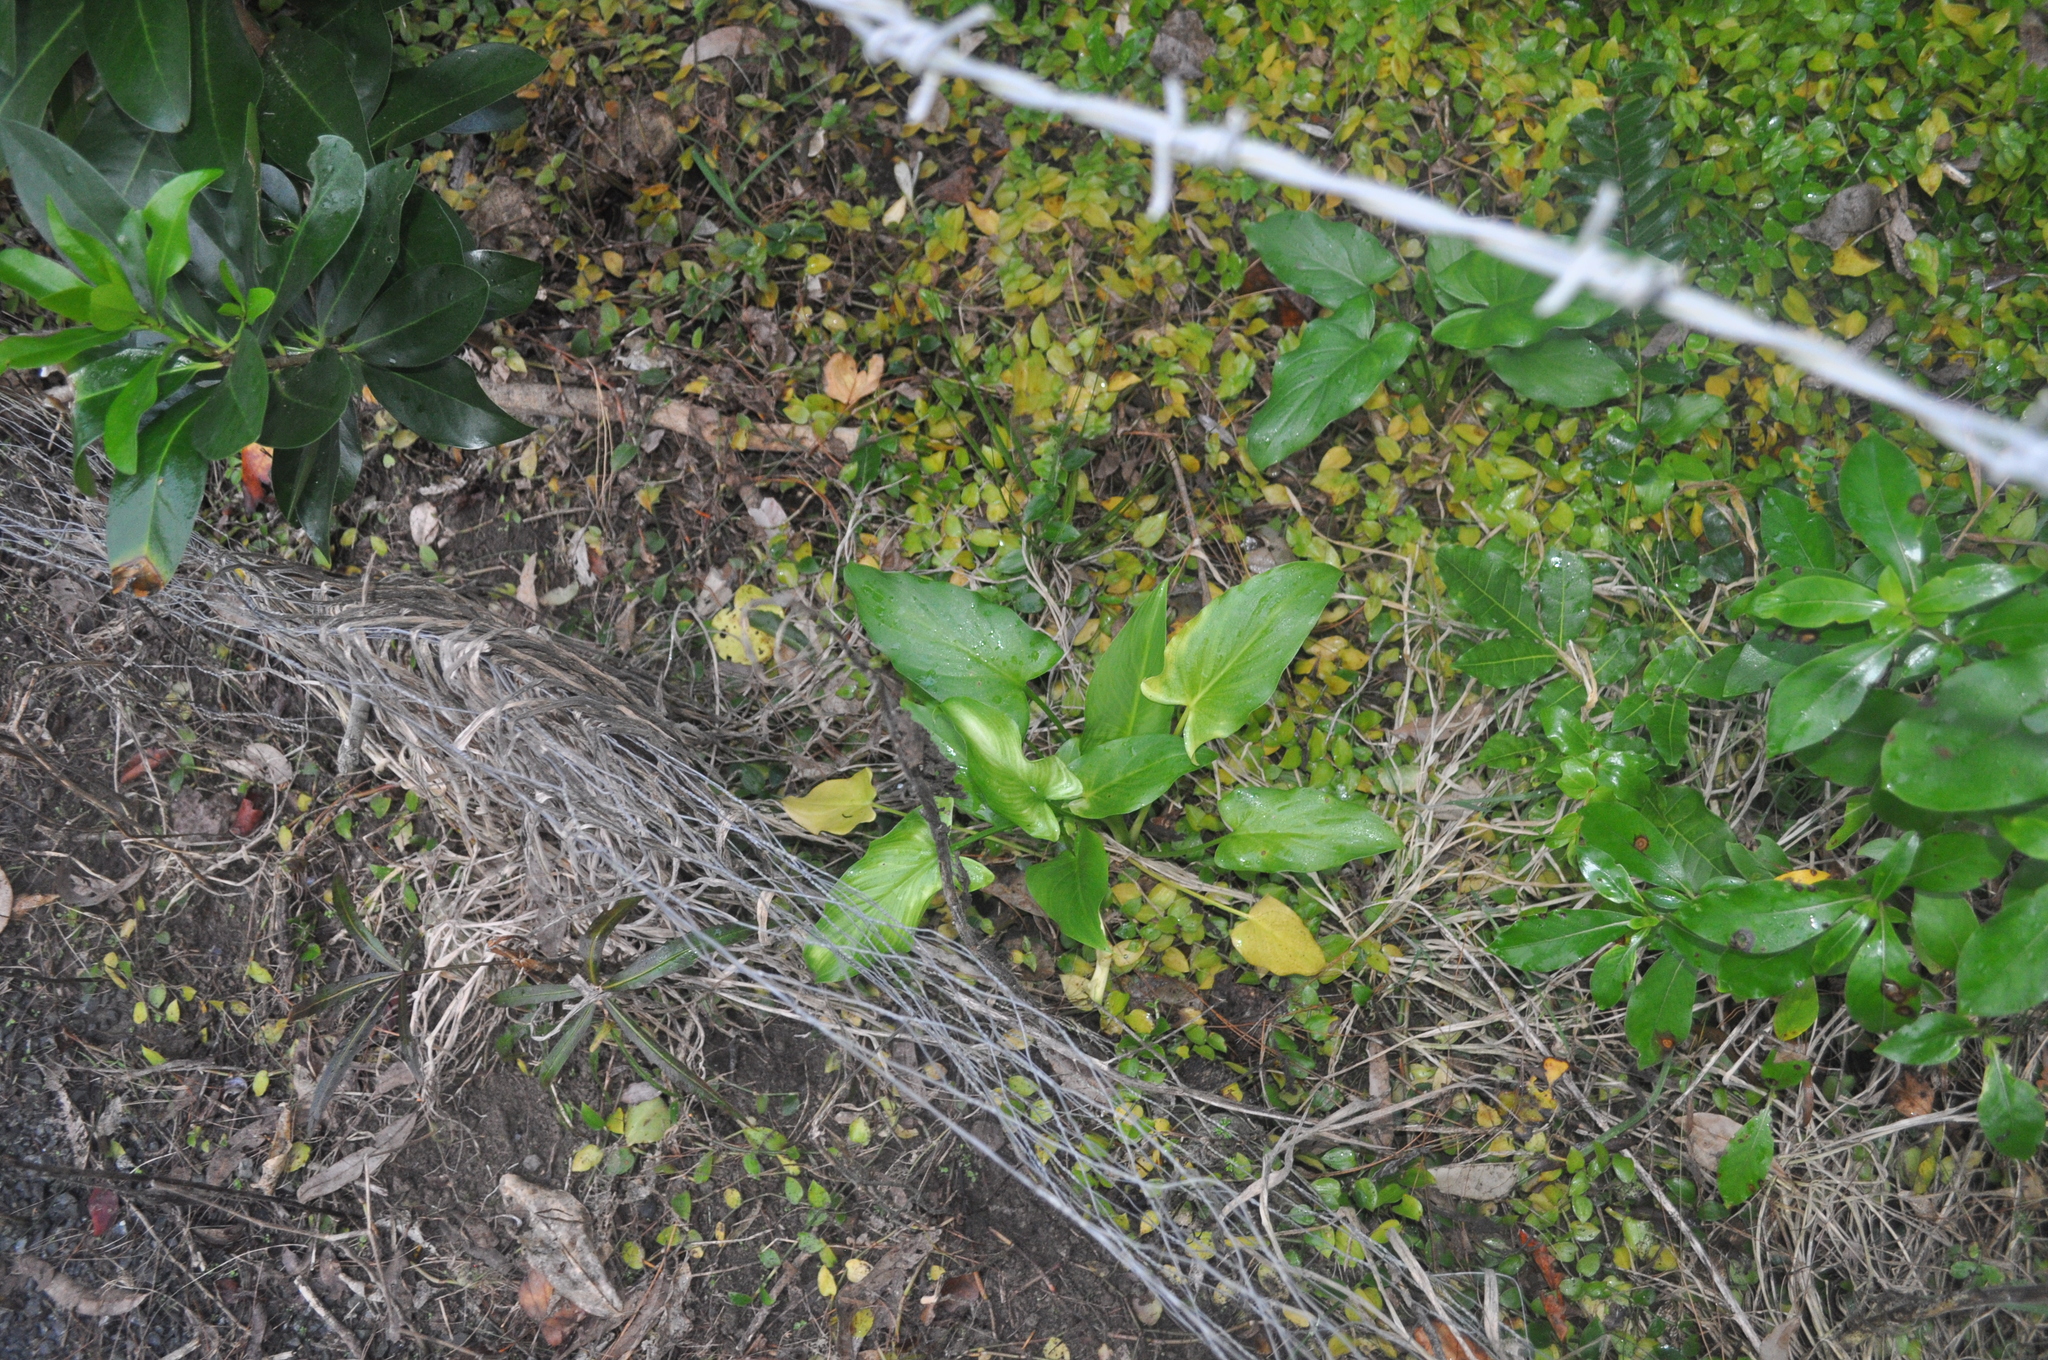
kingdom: Plantae
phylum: Tracheophyta
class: Liliopsida
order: Alismatales
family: Araceae
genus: Zantedeschia
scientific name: Zantedeschia aethiopica
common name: Altar-lily
